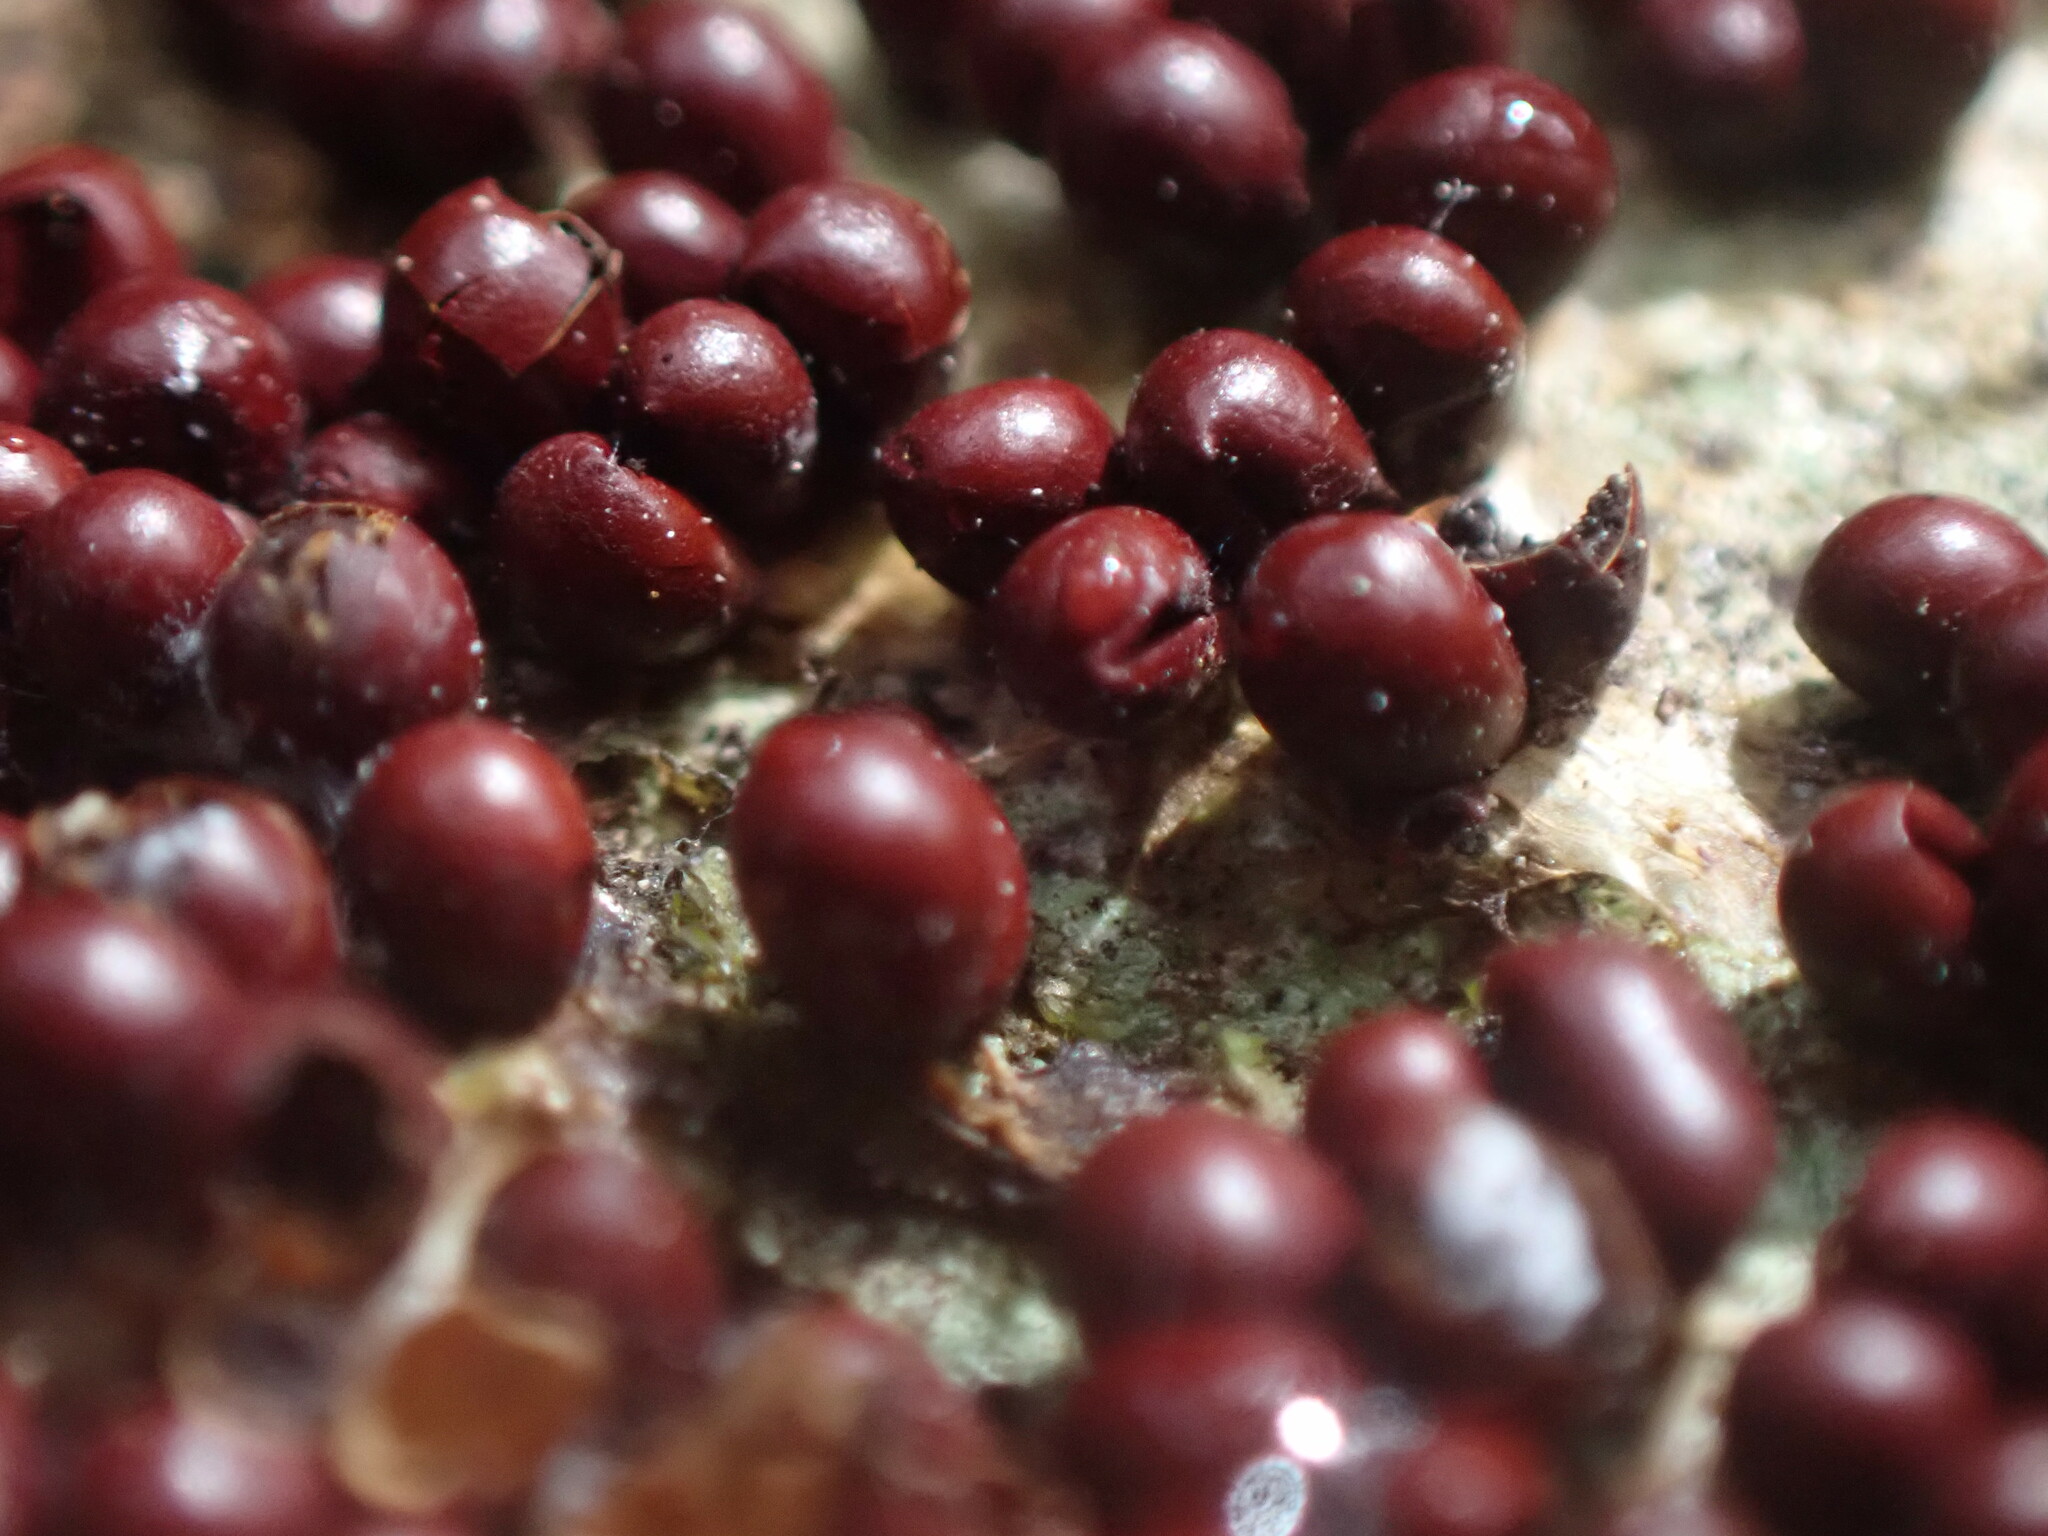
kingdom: Protozoa
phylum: Mycetozoa
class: Myxomycetes
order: Physarales
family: Physaraceae
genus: Leocarpus
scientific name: Leocarpus fragilis
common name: Insect-egg slime
